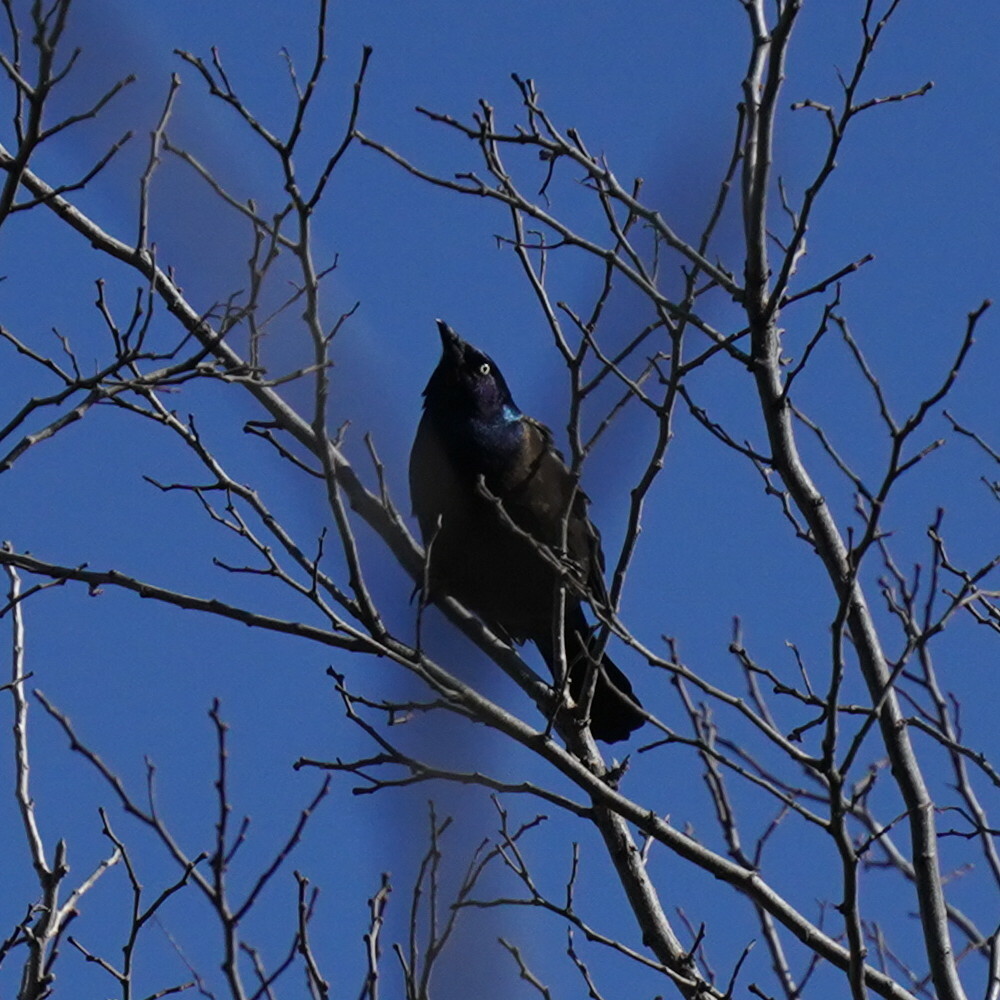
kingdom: Animalia
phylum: Chordata
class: Aves
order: Passeriformes
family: Icteridae
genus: Quiscalus
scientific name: Quiscalus quiscula
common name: Common grackle
